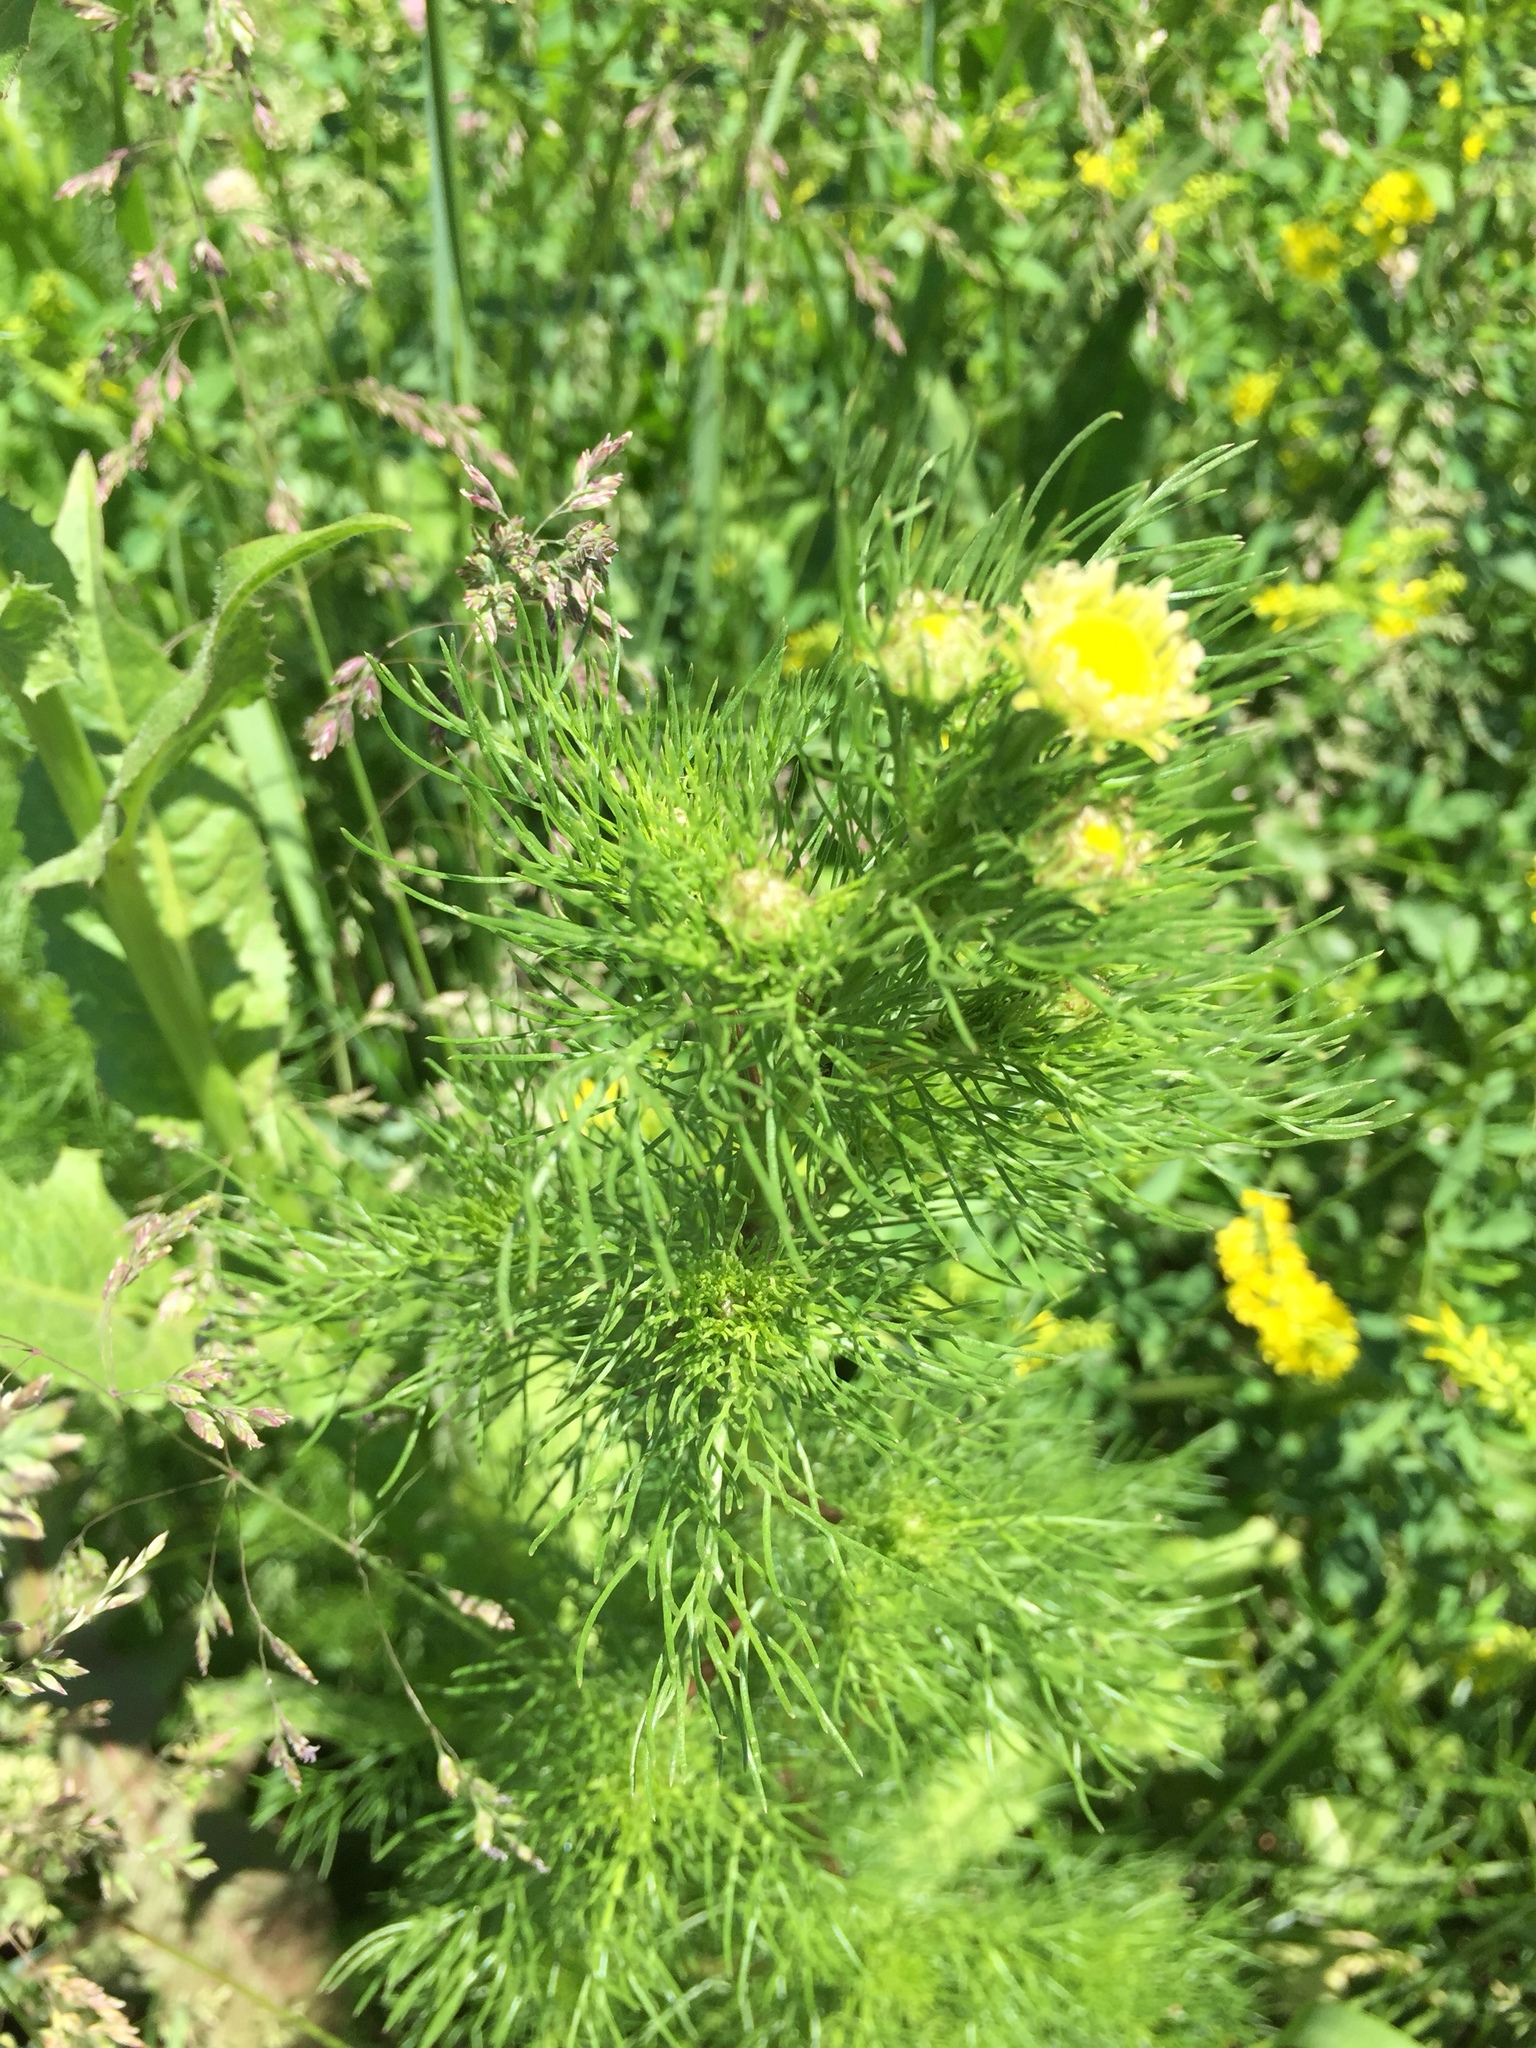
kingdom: Plantae
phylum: Tracheophyta
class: Magnoliopsida
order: Asterales
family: Asteraceae
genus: Matricaria
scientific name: Matricaria discoidea
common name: Disc mayweed
